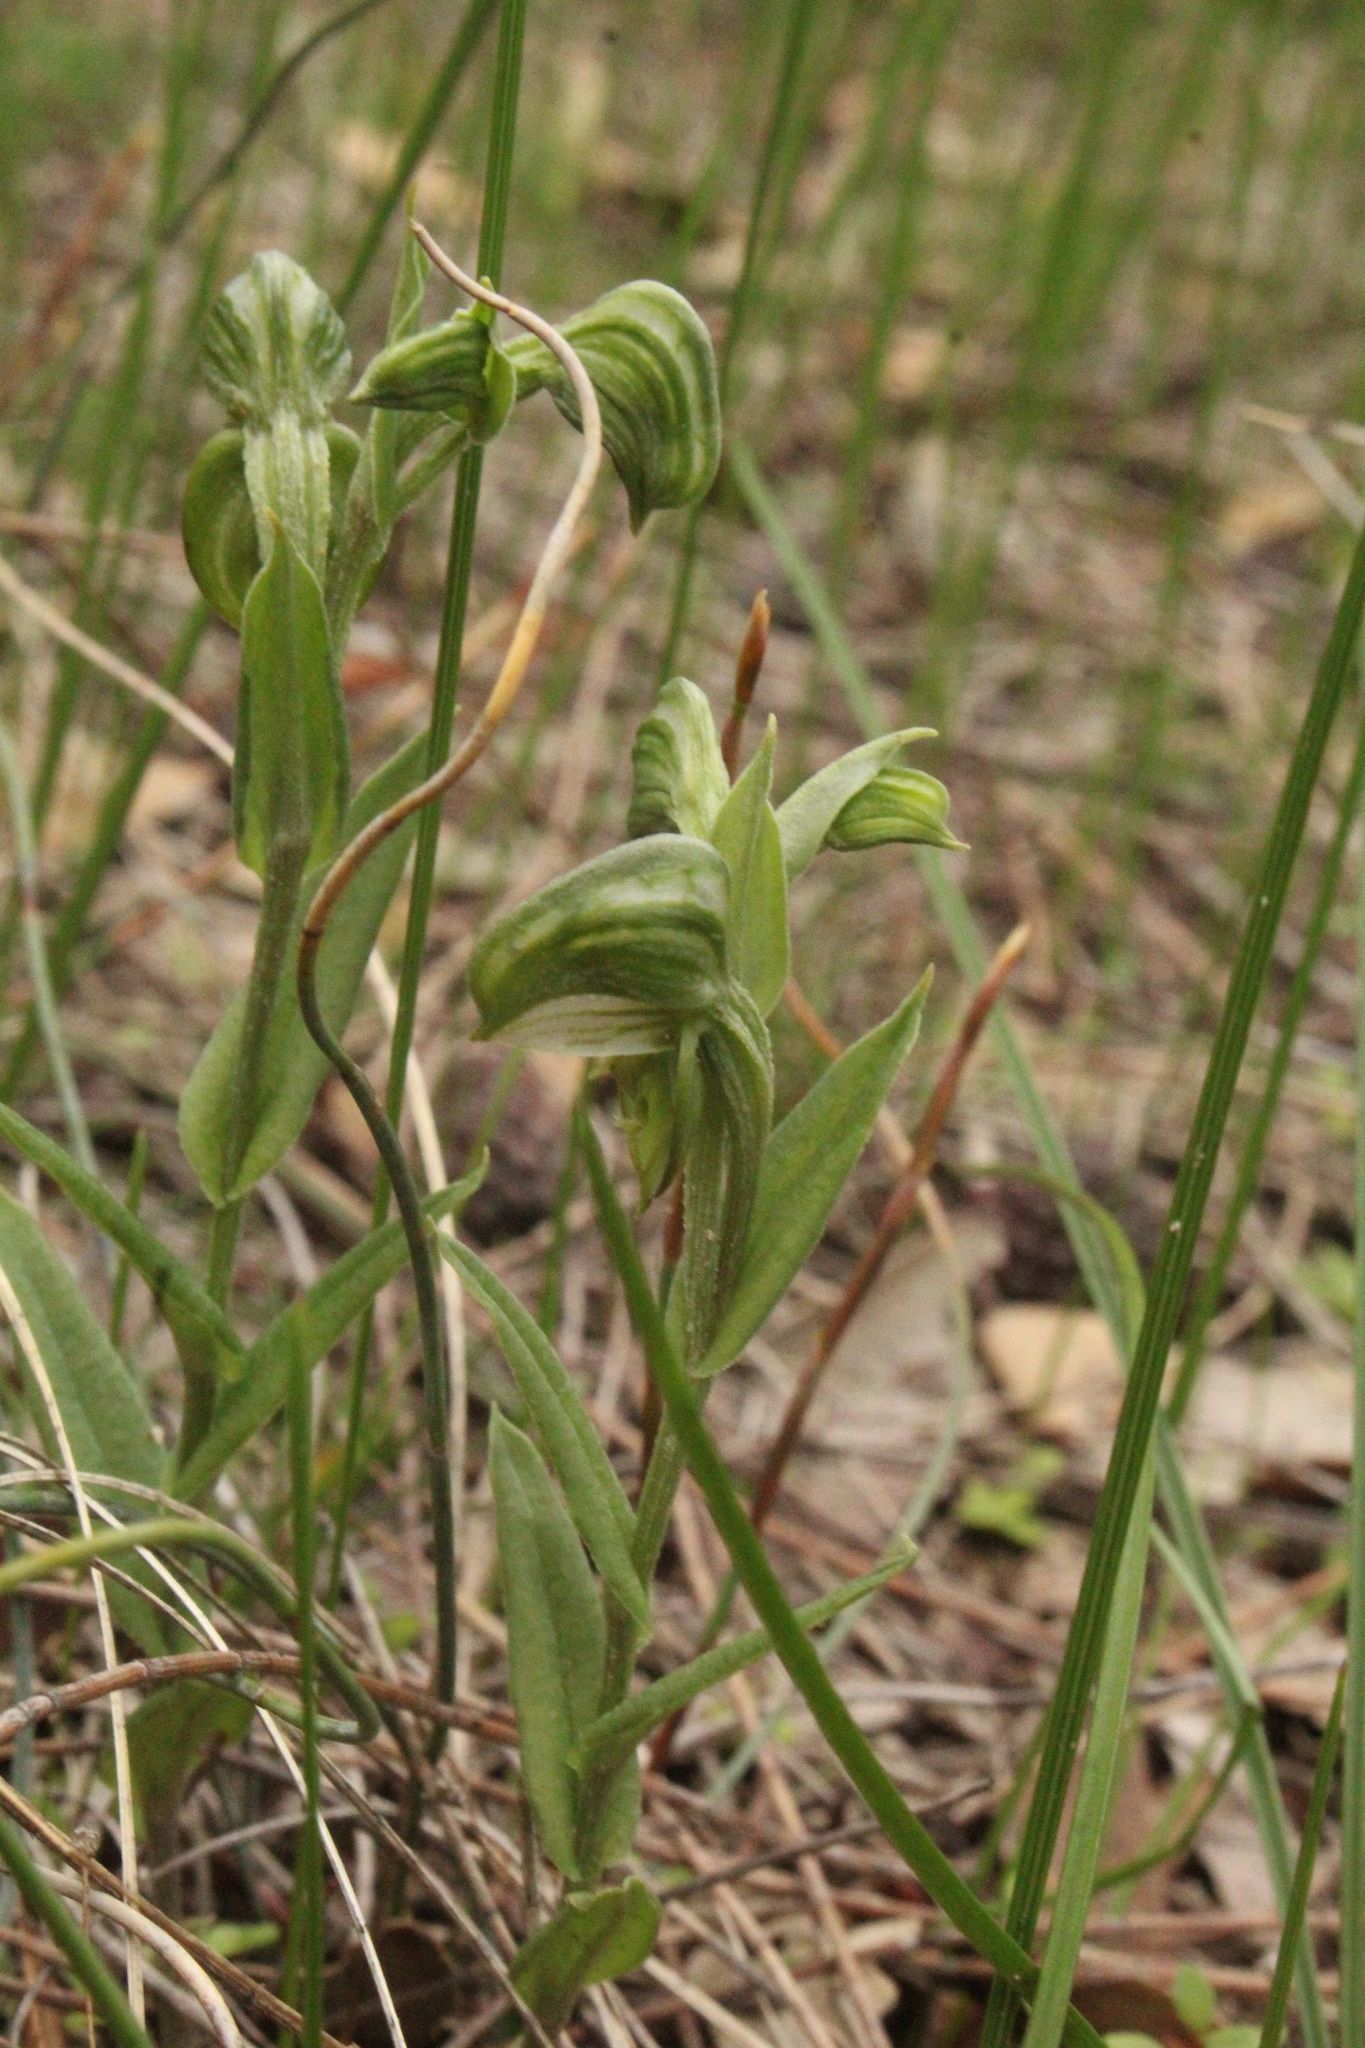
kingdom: Plantae
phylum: Tracheophyta
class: Liliopsida
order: Asparagales
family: Orchidaceae
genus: Pterostylis
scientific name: Pterostylis vittata
